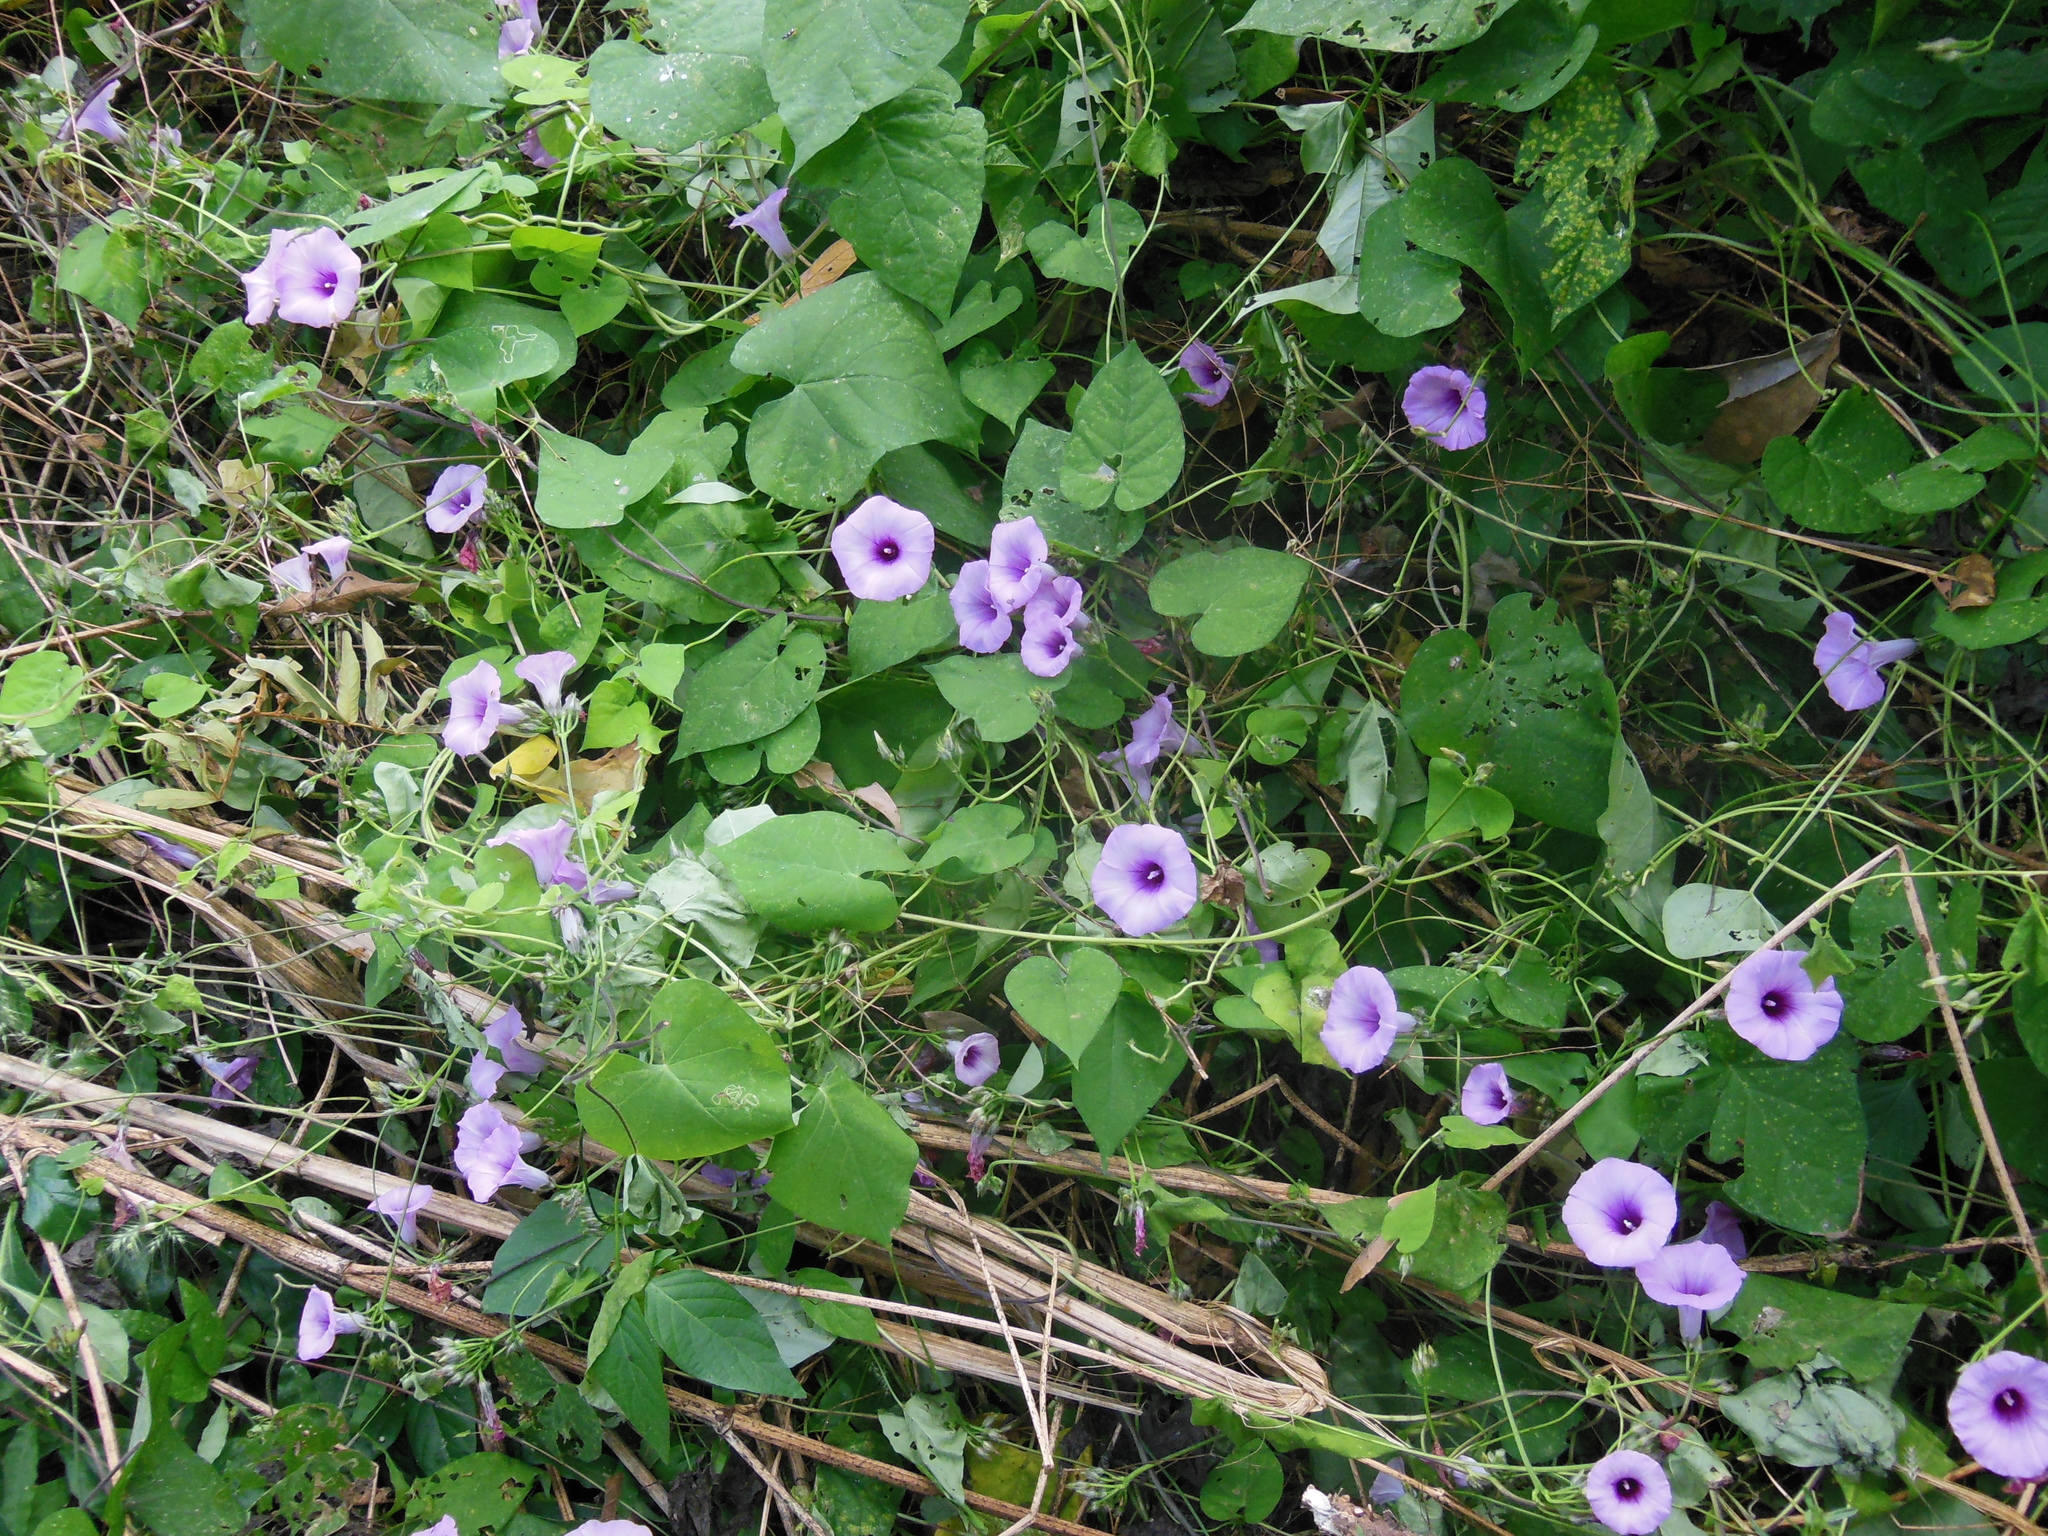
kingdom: Plantae
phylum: Tracheophyta
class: Magnoliopsida
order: Solanales
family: Convolvulaceae
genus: Ipomoea
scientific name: Ipomoea trifida
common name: Cotton morningglory
